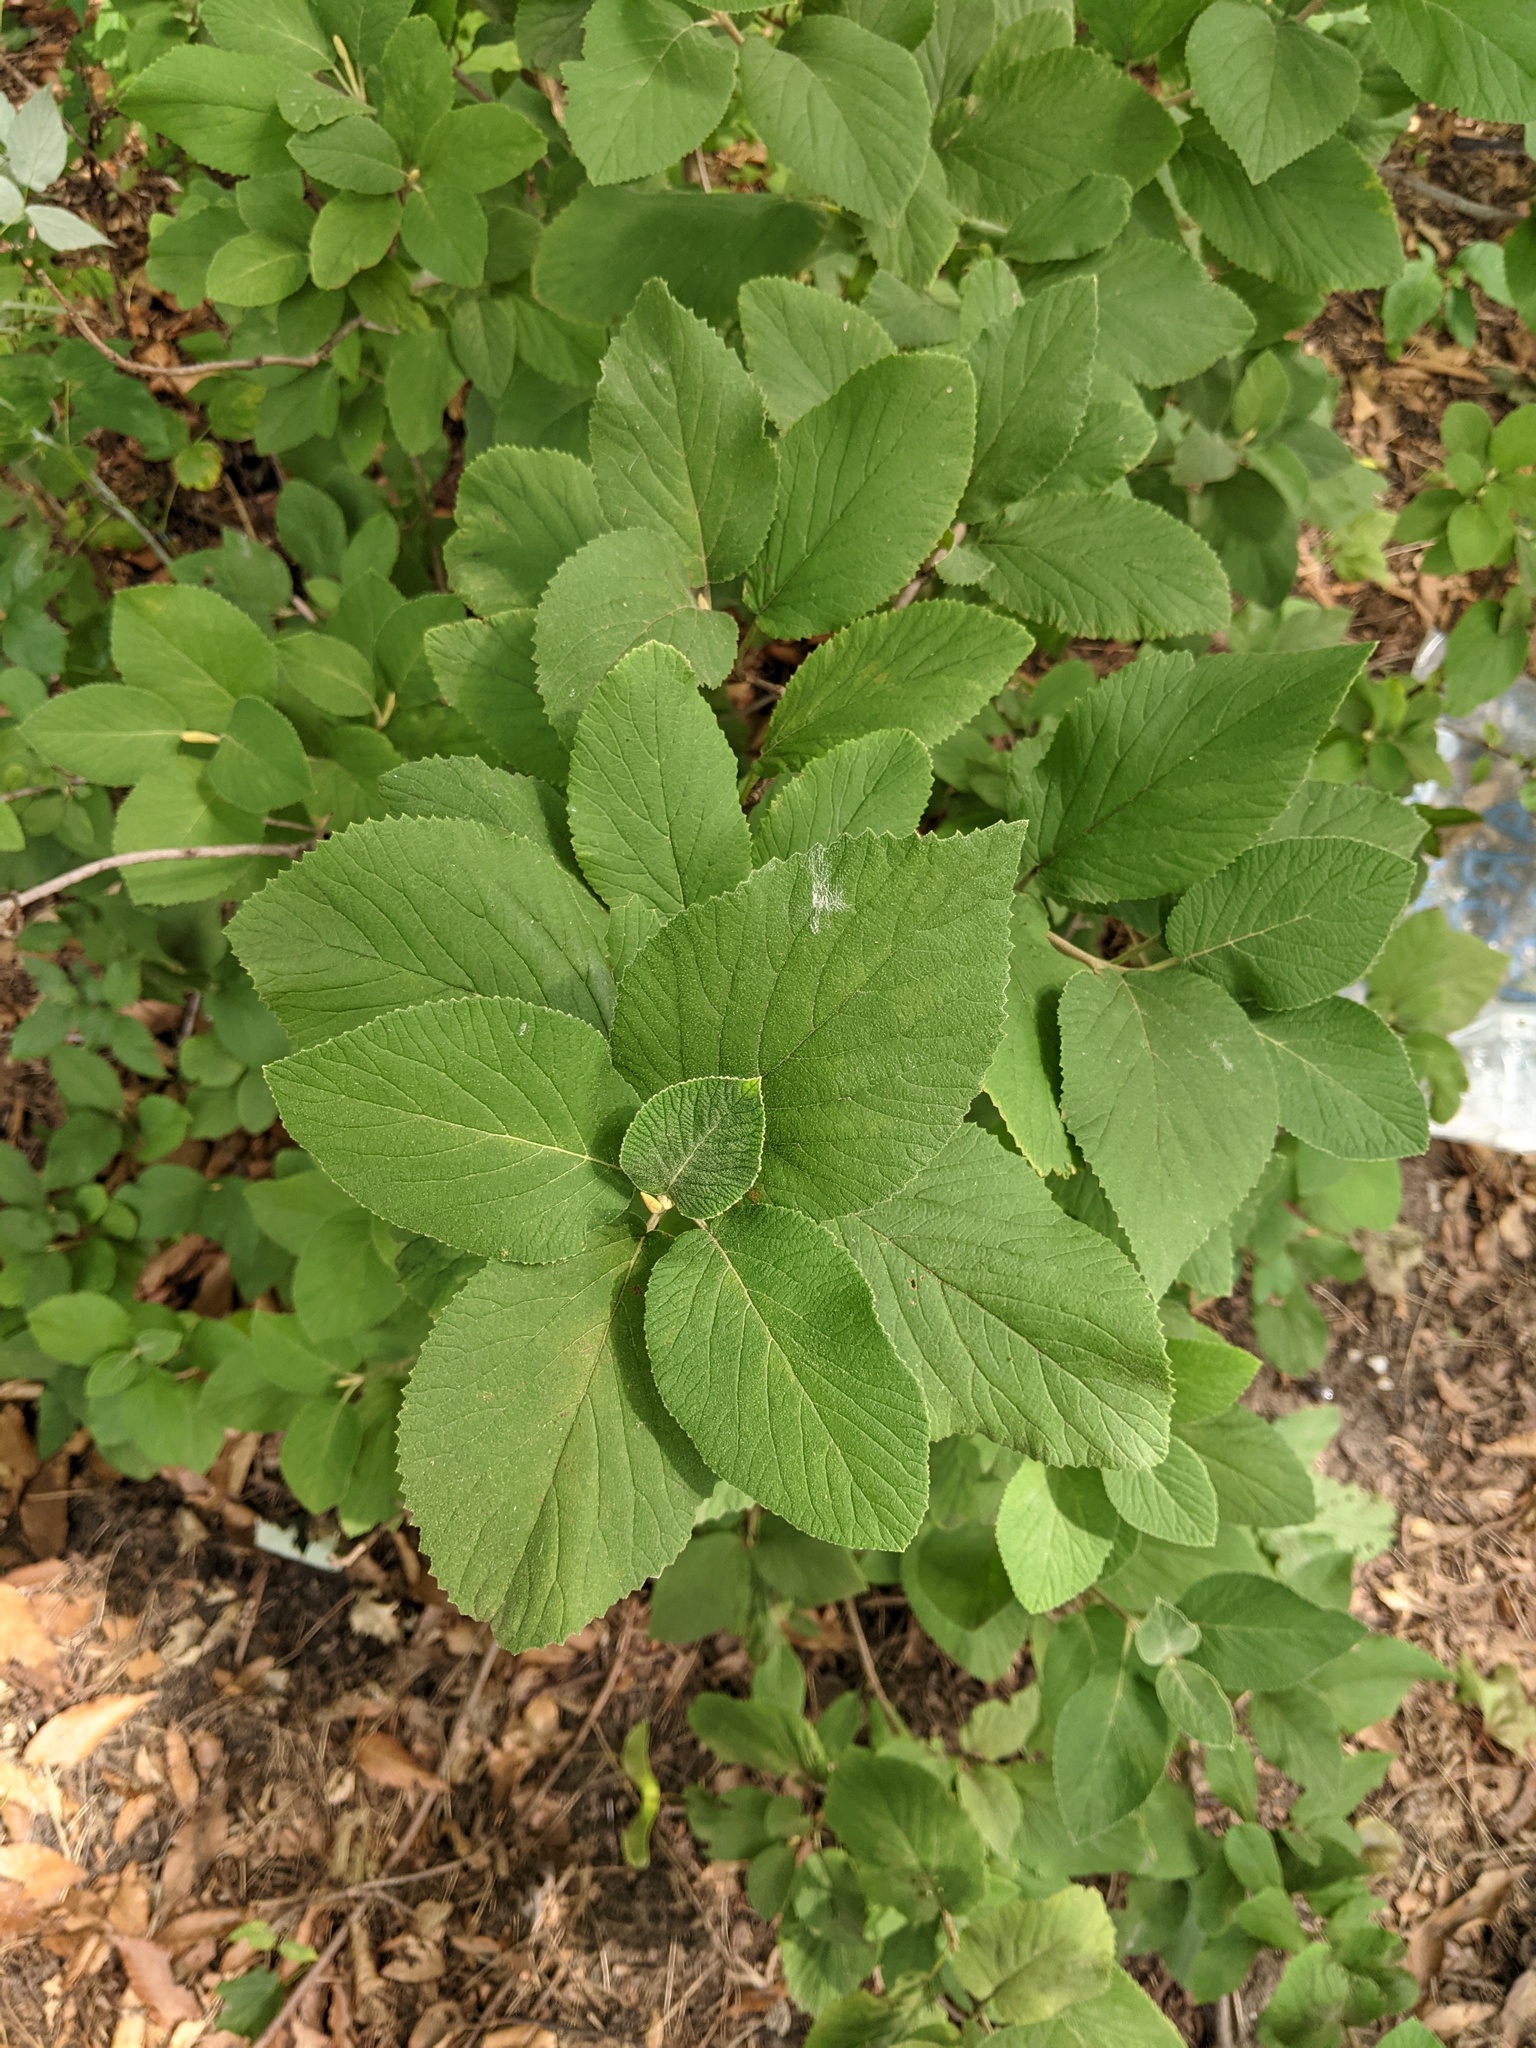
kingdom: Plantae
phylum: Tracheophyta
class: Magnoliopsida
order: Dipsacales
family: Viburnaceae
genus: Viburnum
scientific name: Viburnum lantana
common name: Wayfaring tree
